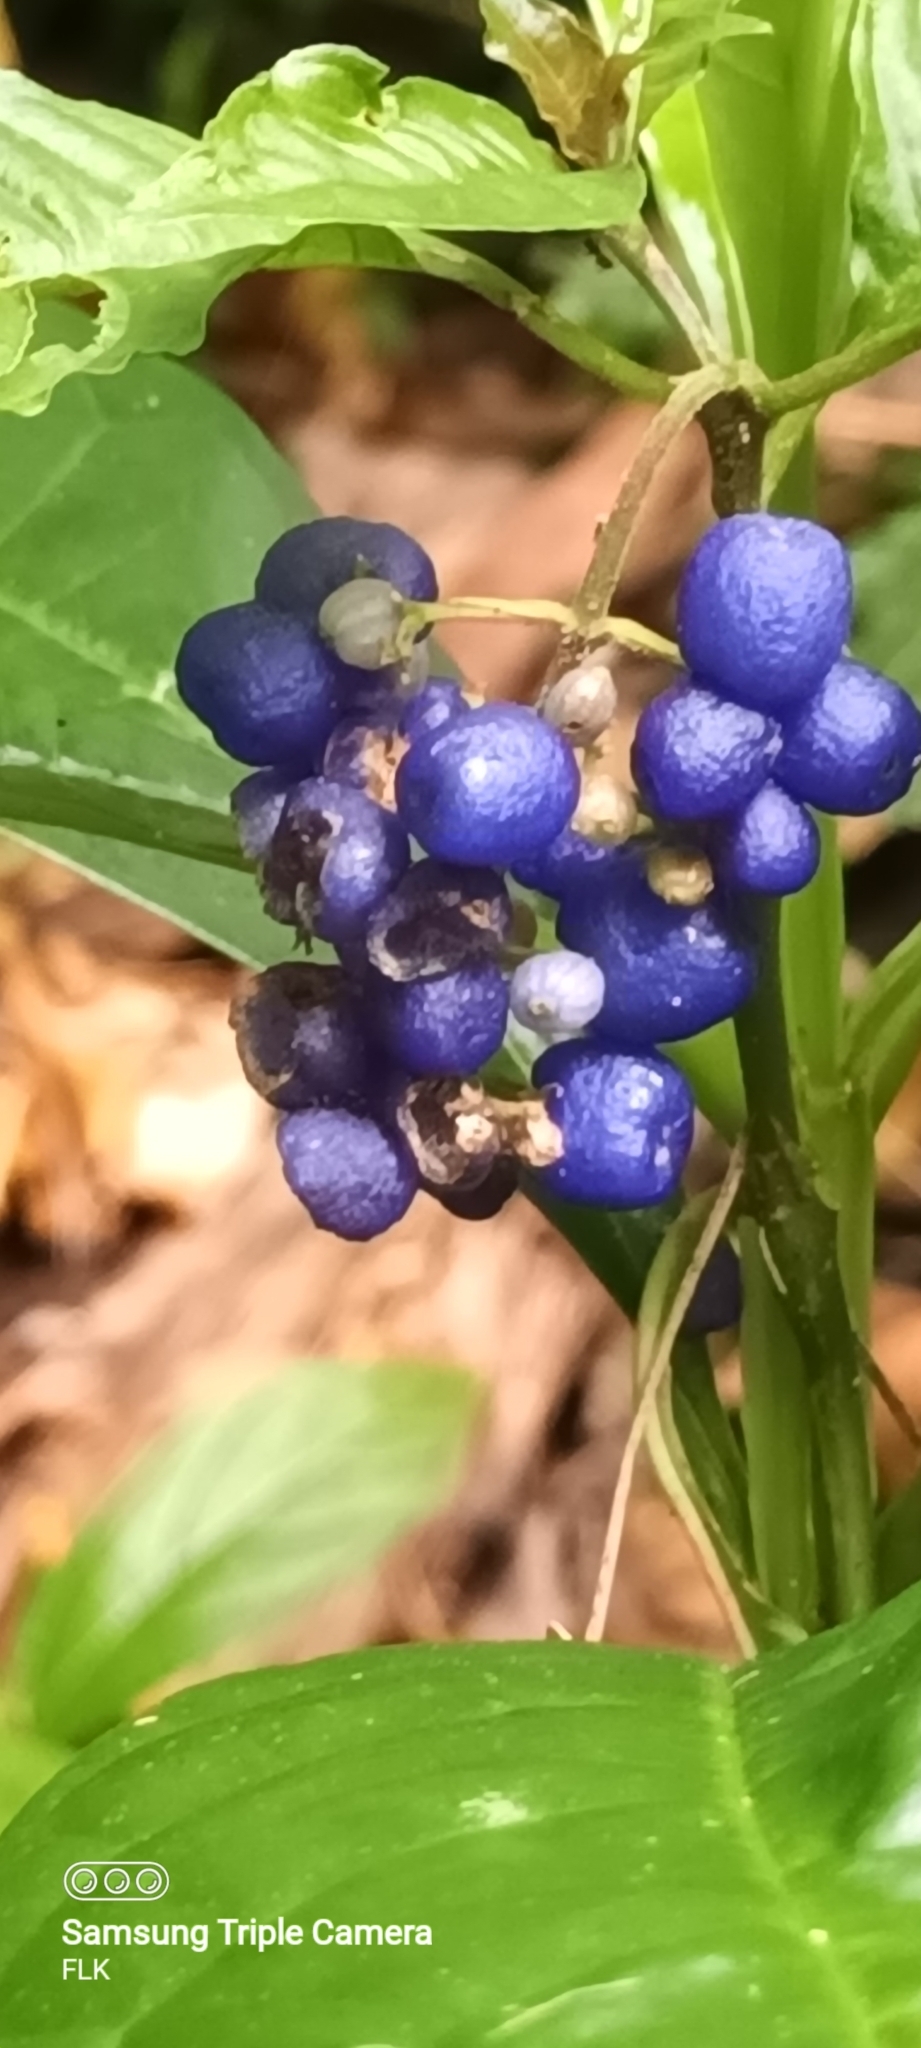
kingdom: Plantae
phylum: Tracheophyta
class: Magnoliopsida
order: Gentianales
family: Rubiaceae
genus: Palicourea
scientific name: Palicourea cyanococca
